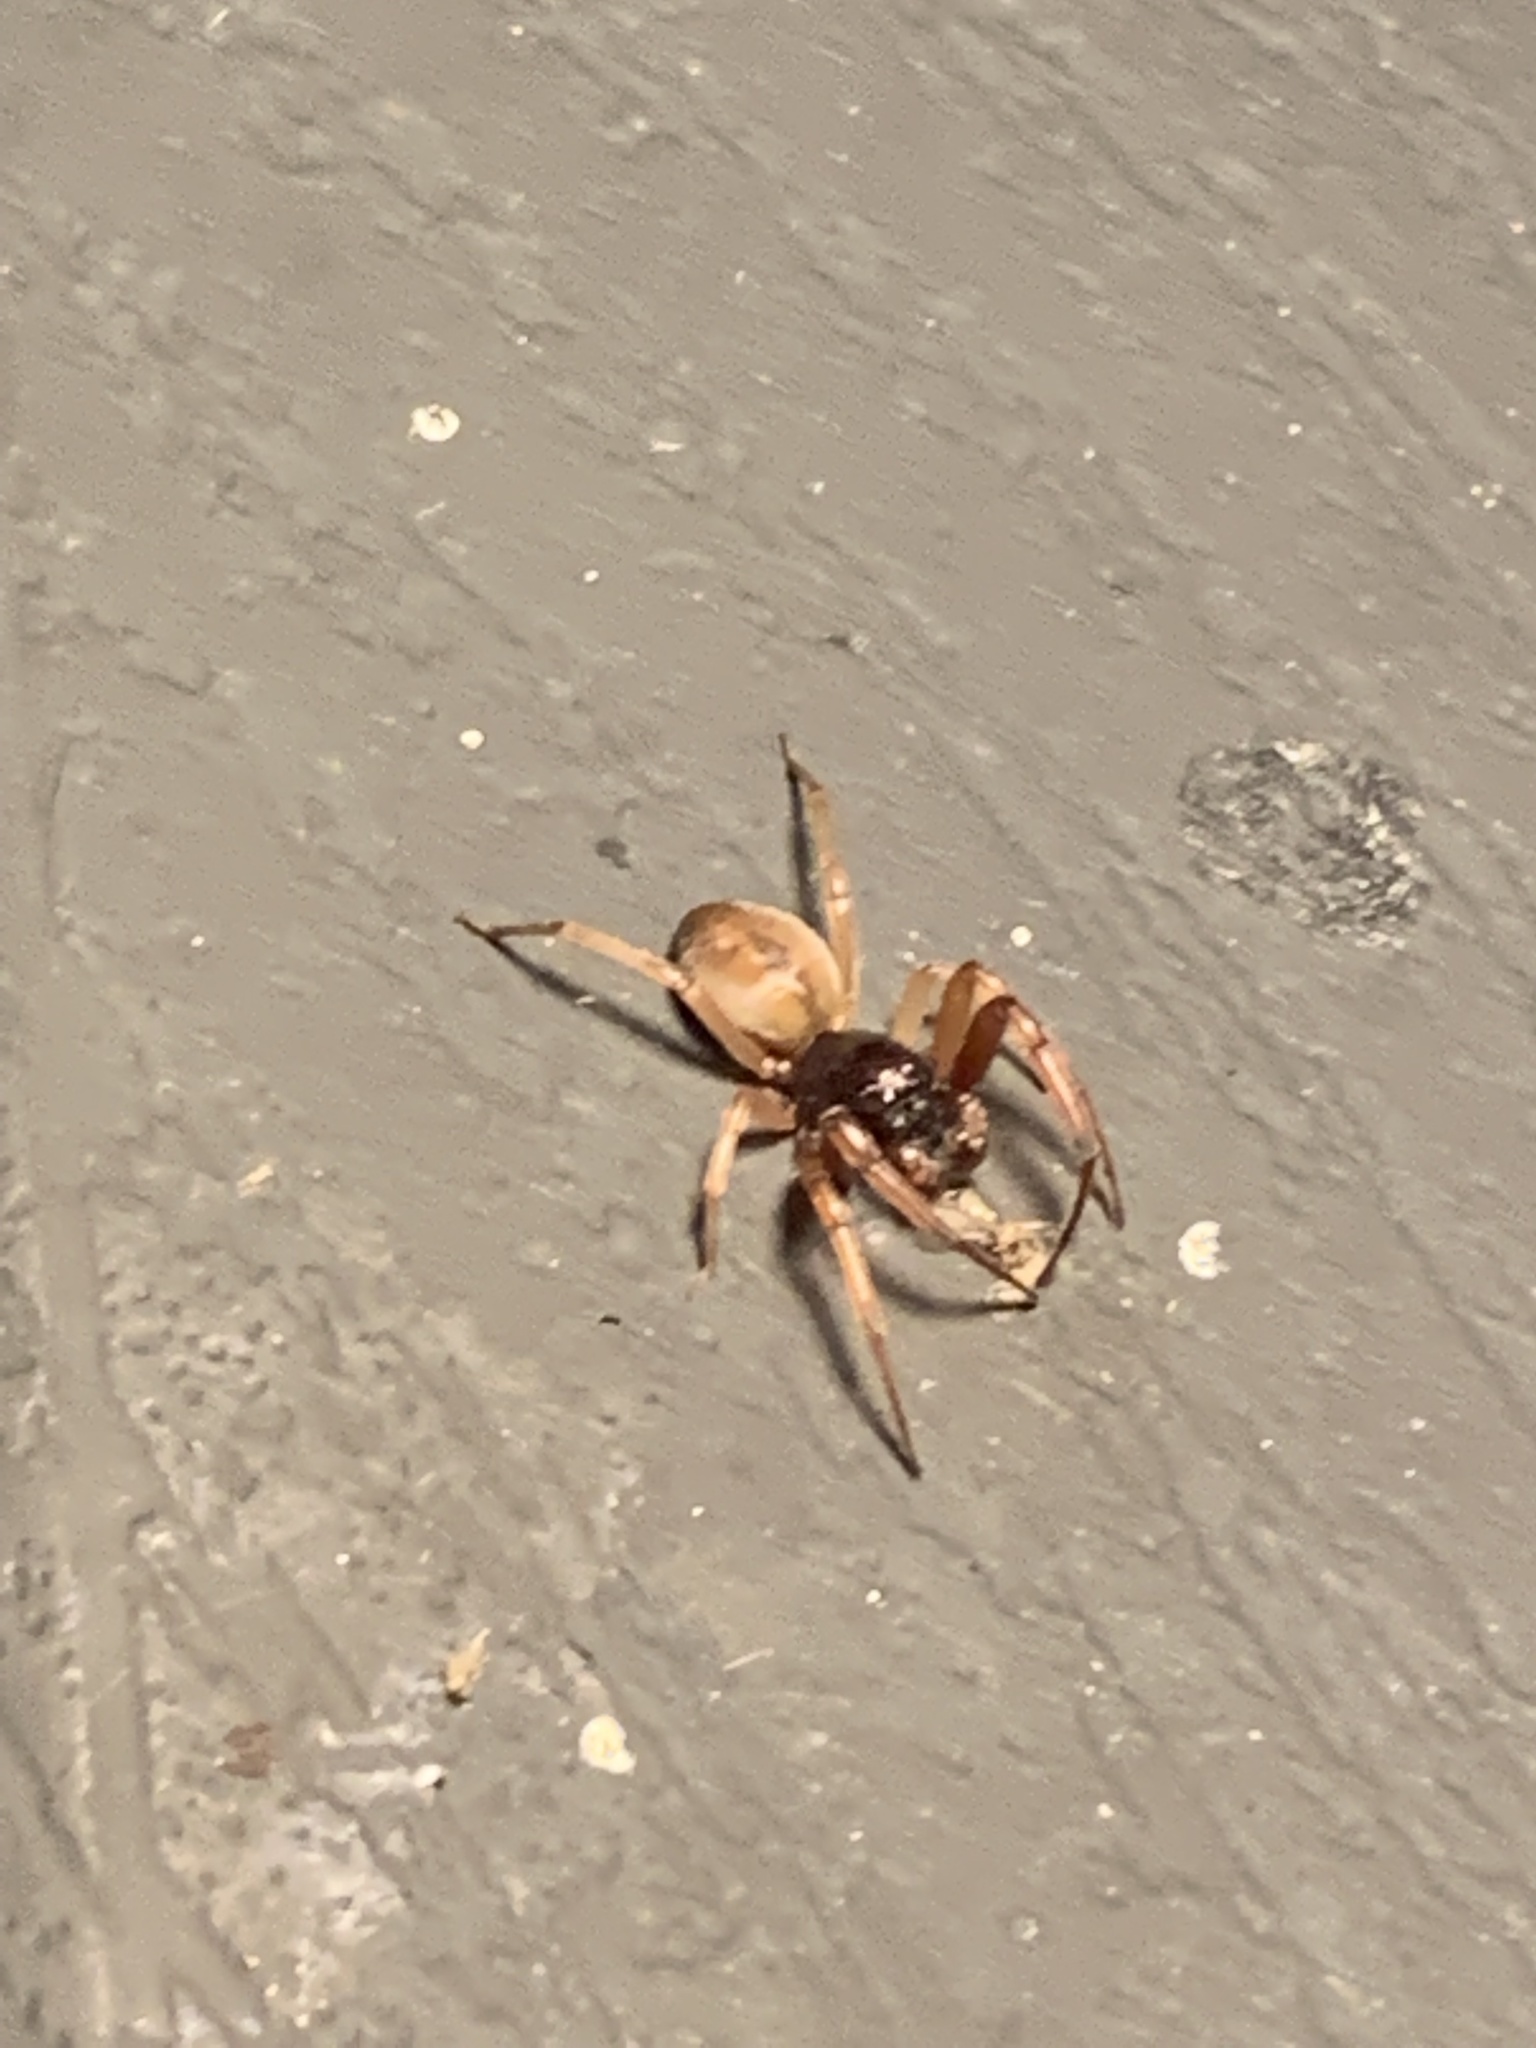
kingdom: Animalia
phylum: Arthropoda
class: Arachnida
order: Araneae
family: Trachelidae
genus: Trachelas
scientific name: Trachelas tranquillus
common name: Broad-faced sac spider
